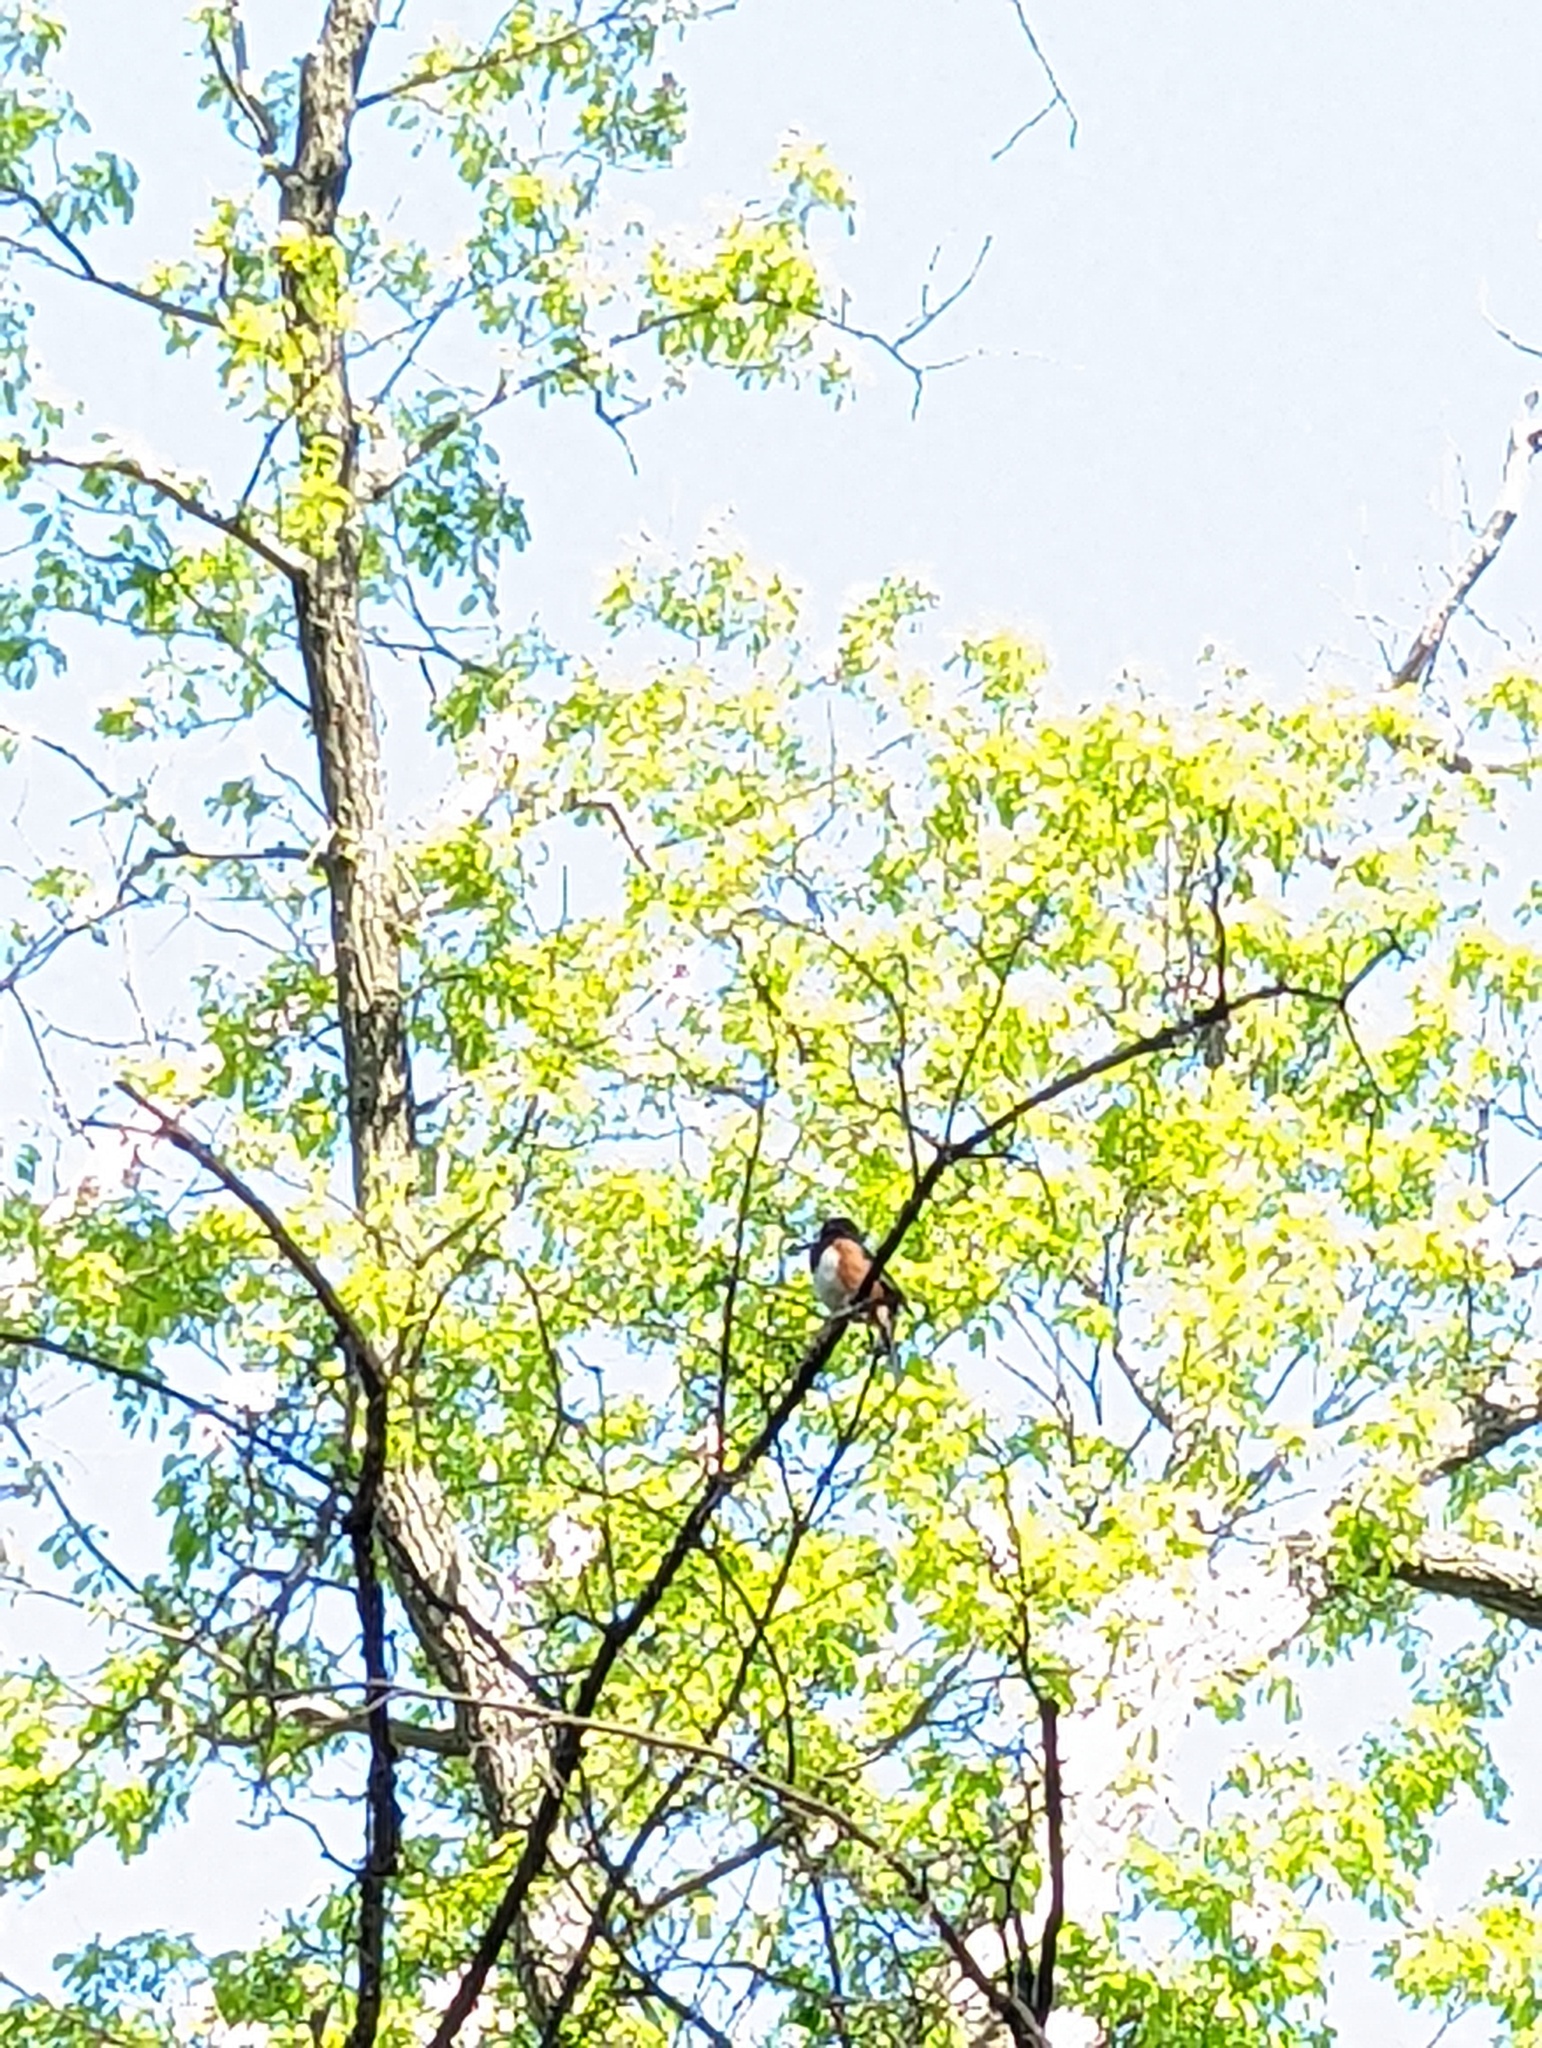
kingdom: Animalia
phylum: Chordata
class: Aves
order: Passeriformes
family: Passerellidae
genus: Pipilo
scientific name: Pipilo erythrophthalmus
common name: Eastern towhee
